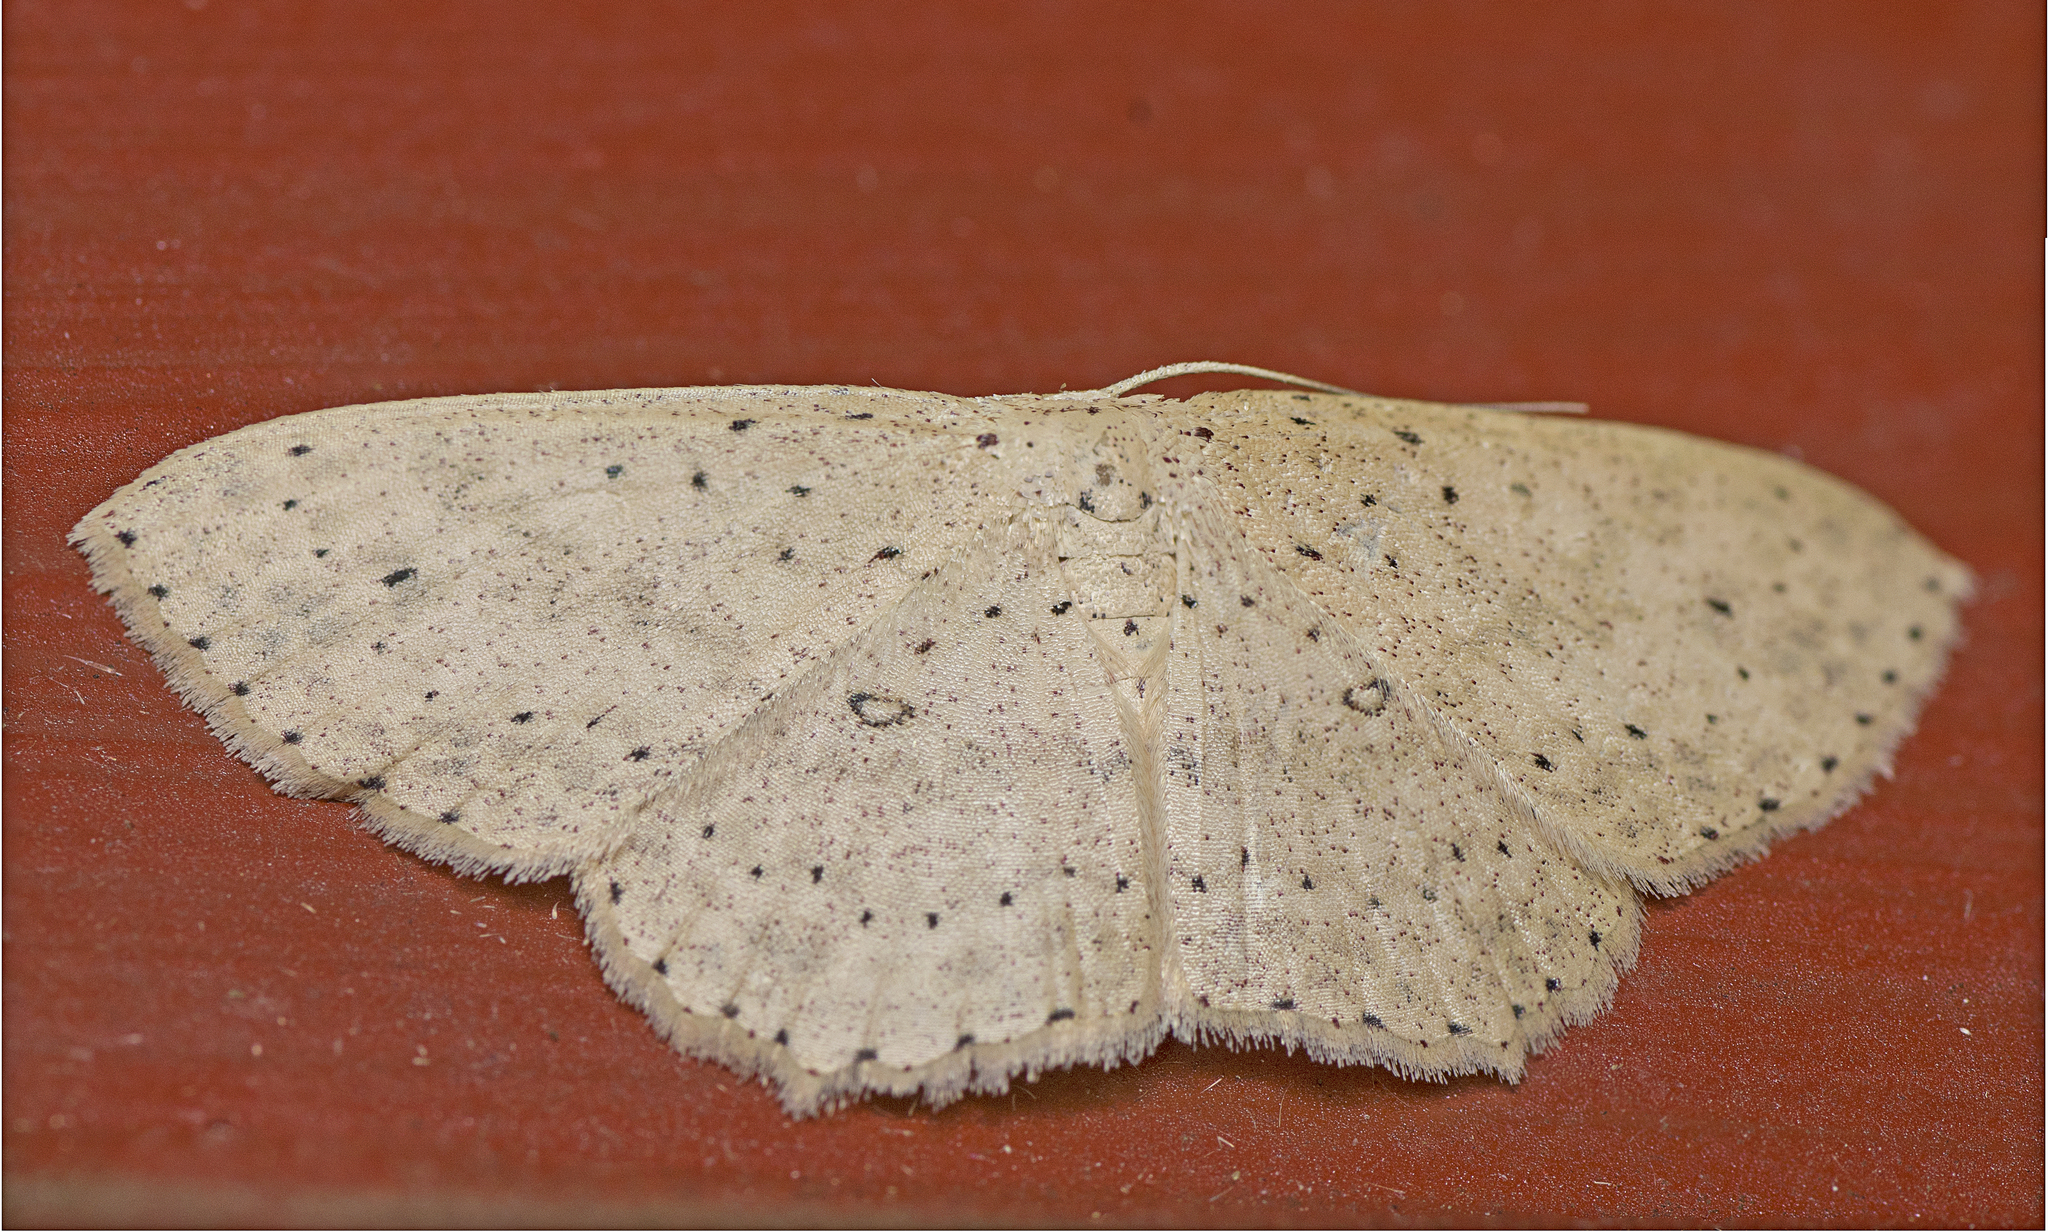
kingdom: Animalia
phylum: Arthropoda
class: Insecta
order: Lepidoptera
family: Geometridae
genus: Cyclophora
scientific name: Cyclophora turneri
